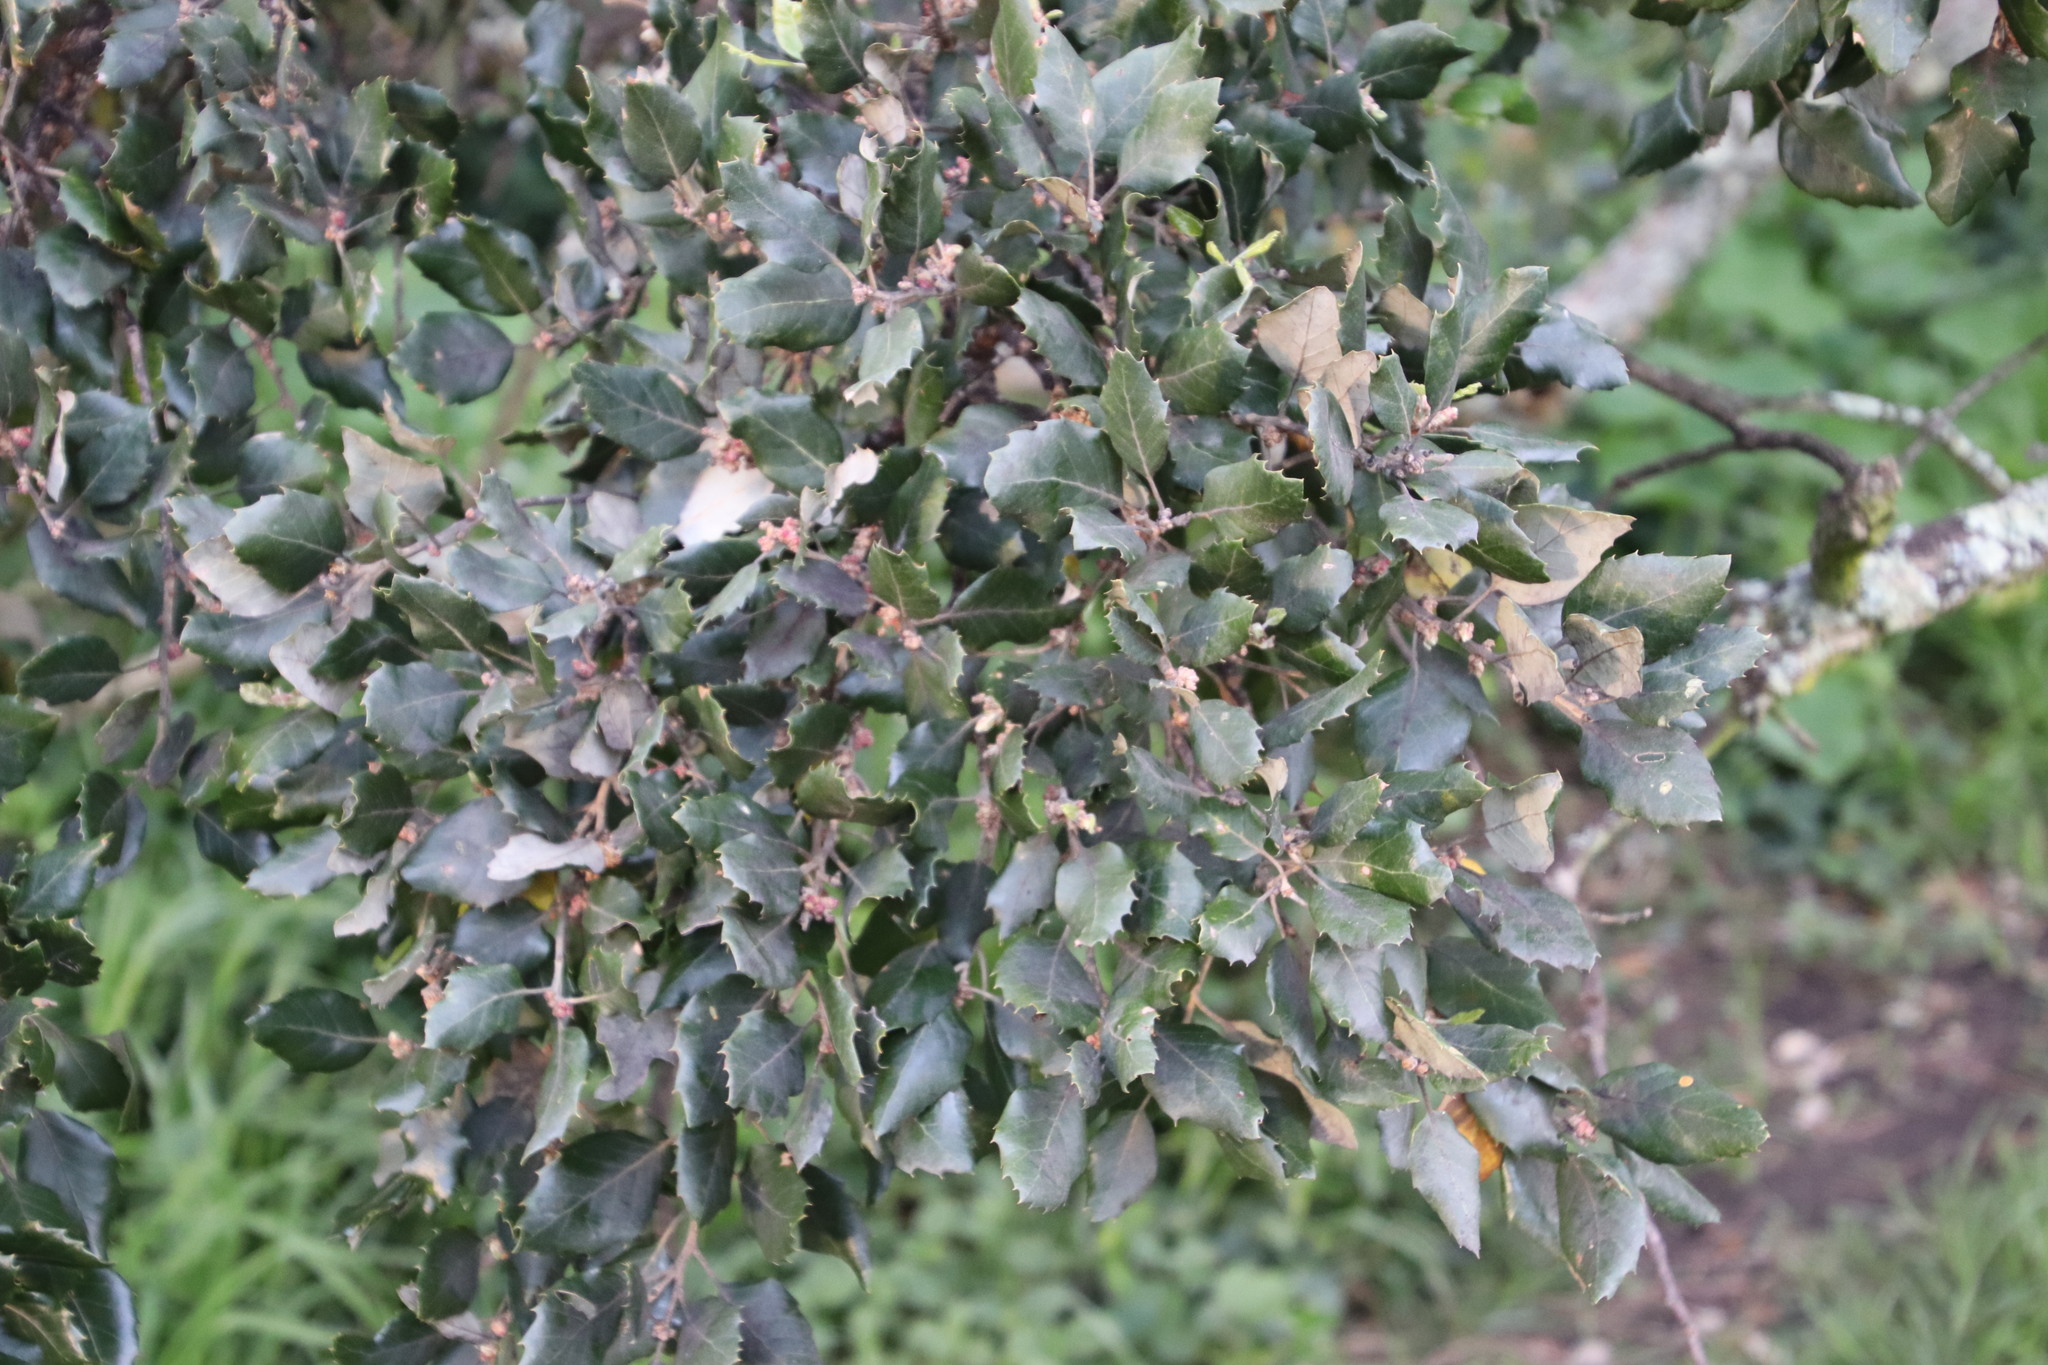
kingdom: Plantae
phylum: Tracheophyta
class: Magnoliopsida
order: Fagales
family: Fagaceae
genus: Quercus
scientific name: Quercus suber
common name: Cork oak
